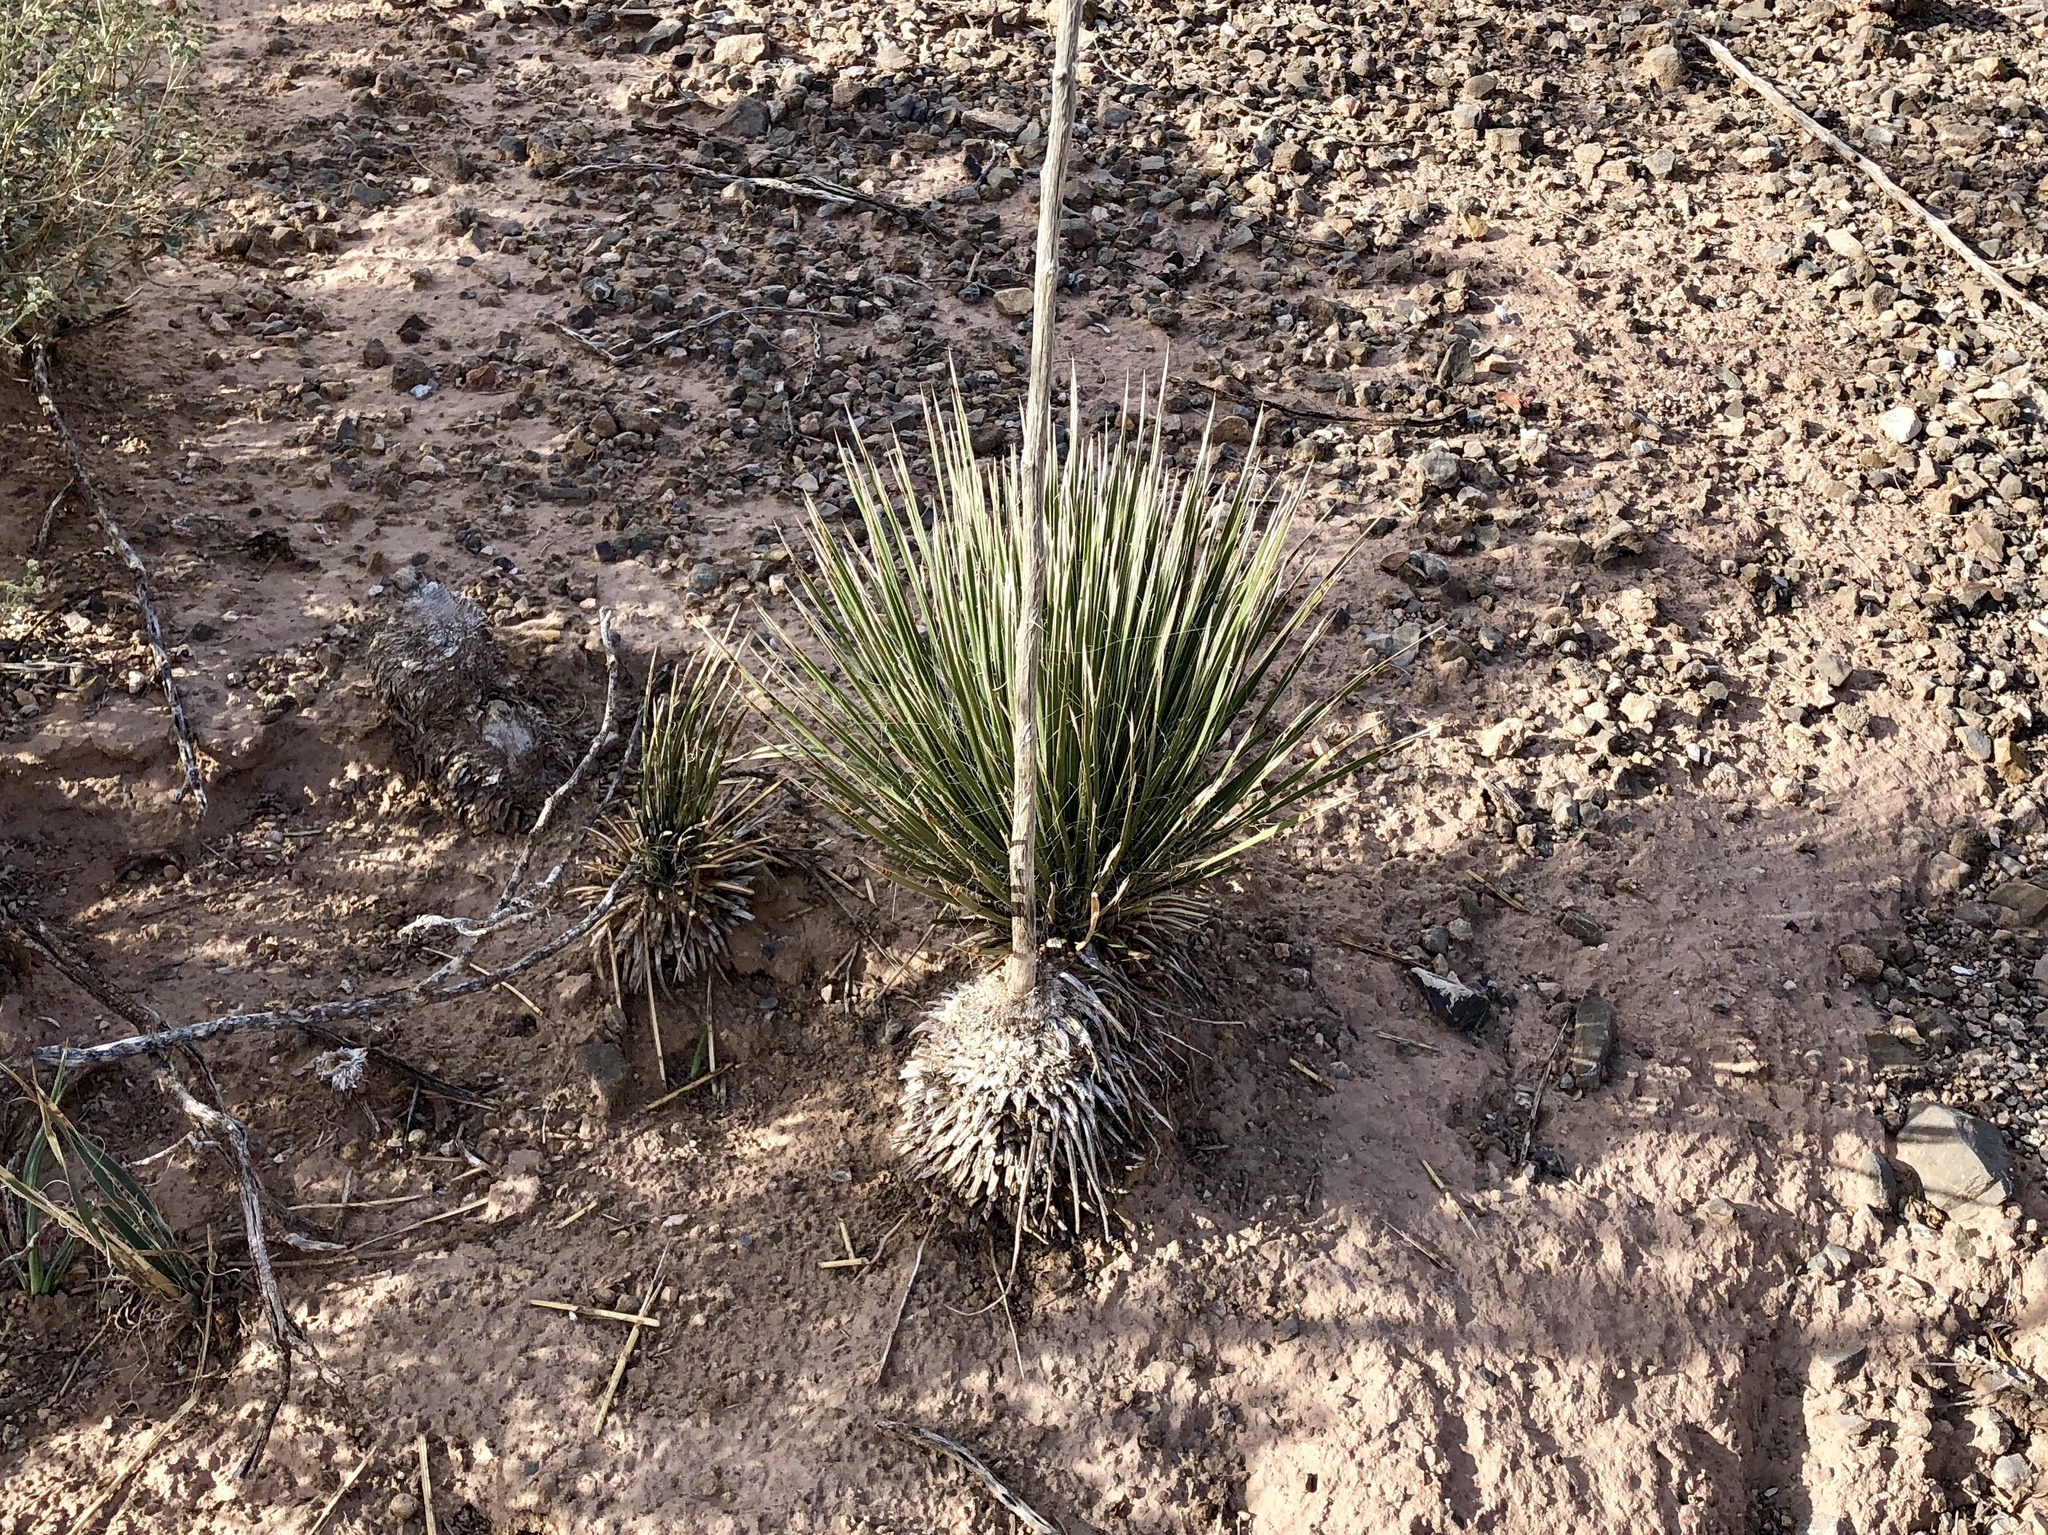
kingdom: Plantae
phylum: Tracheophyta
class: Liliopsida
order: Asparagales
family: Asparagaceae
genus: Yucca
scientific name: Yucca elata
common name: Palmella
